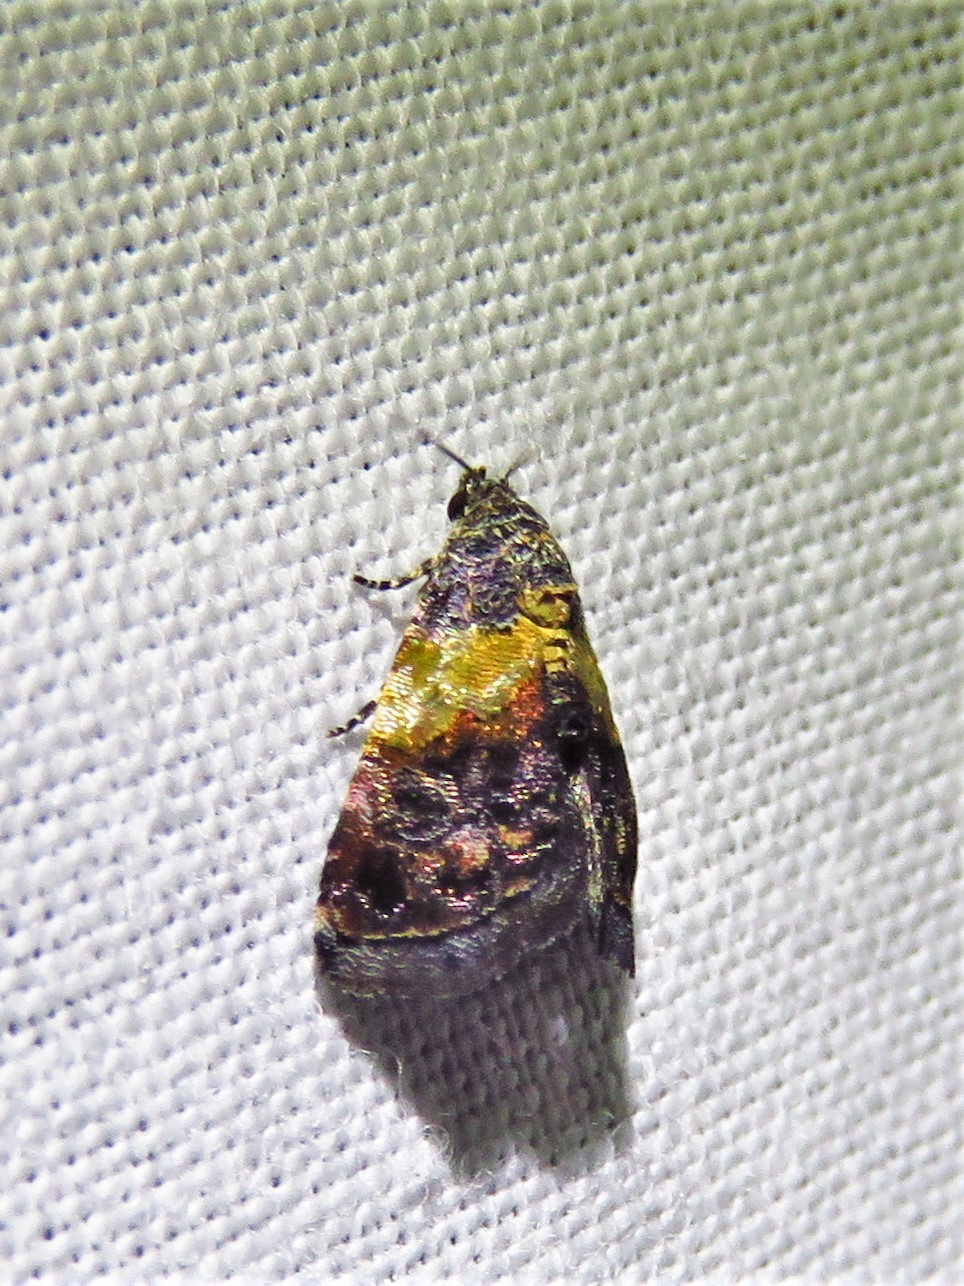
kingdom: Animalia
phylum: Arthropoda
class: Insecta
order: Lepidoptera
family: Noctuidae
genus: Tripudia
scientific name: Tripudia flavofasciata
